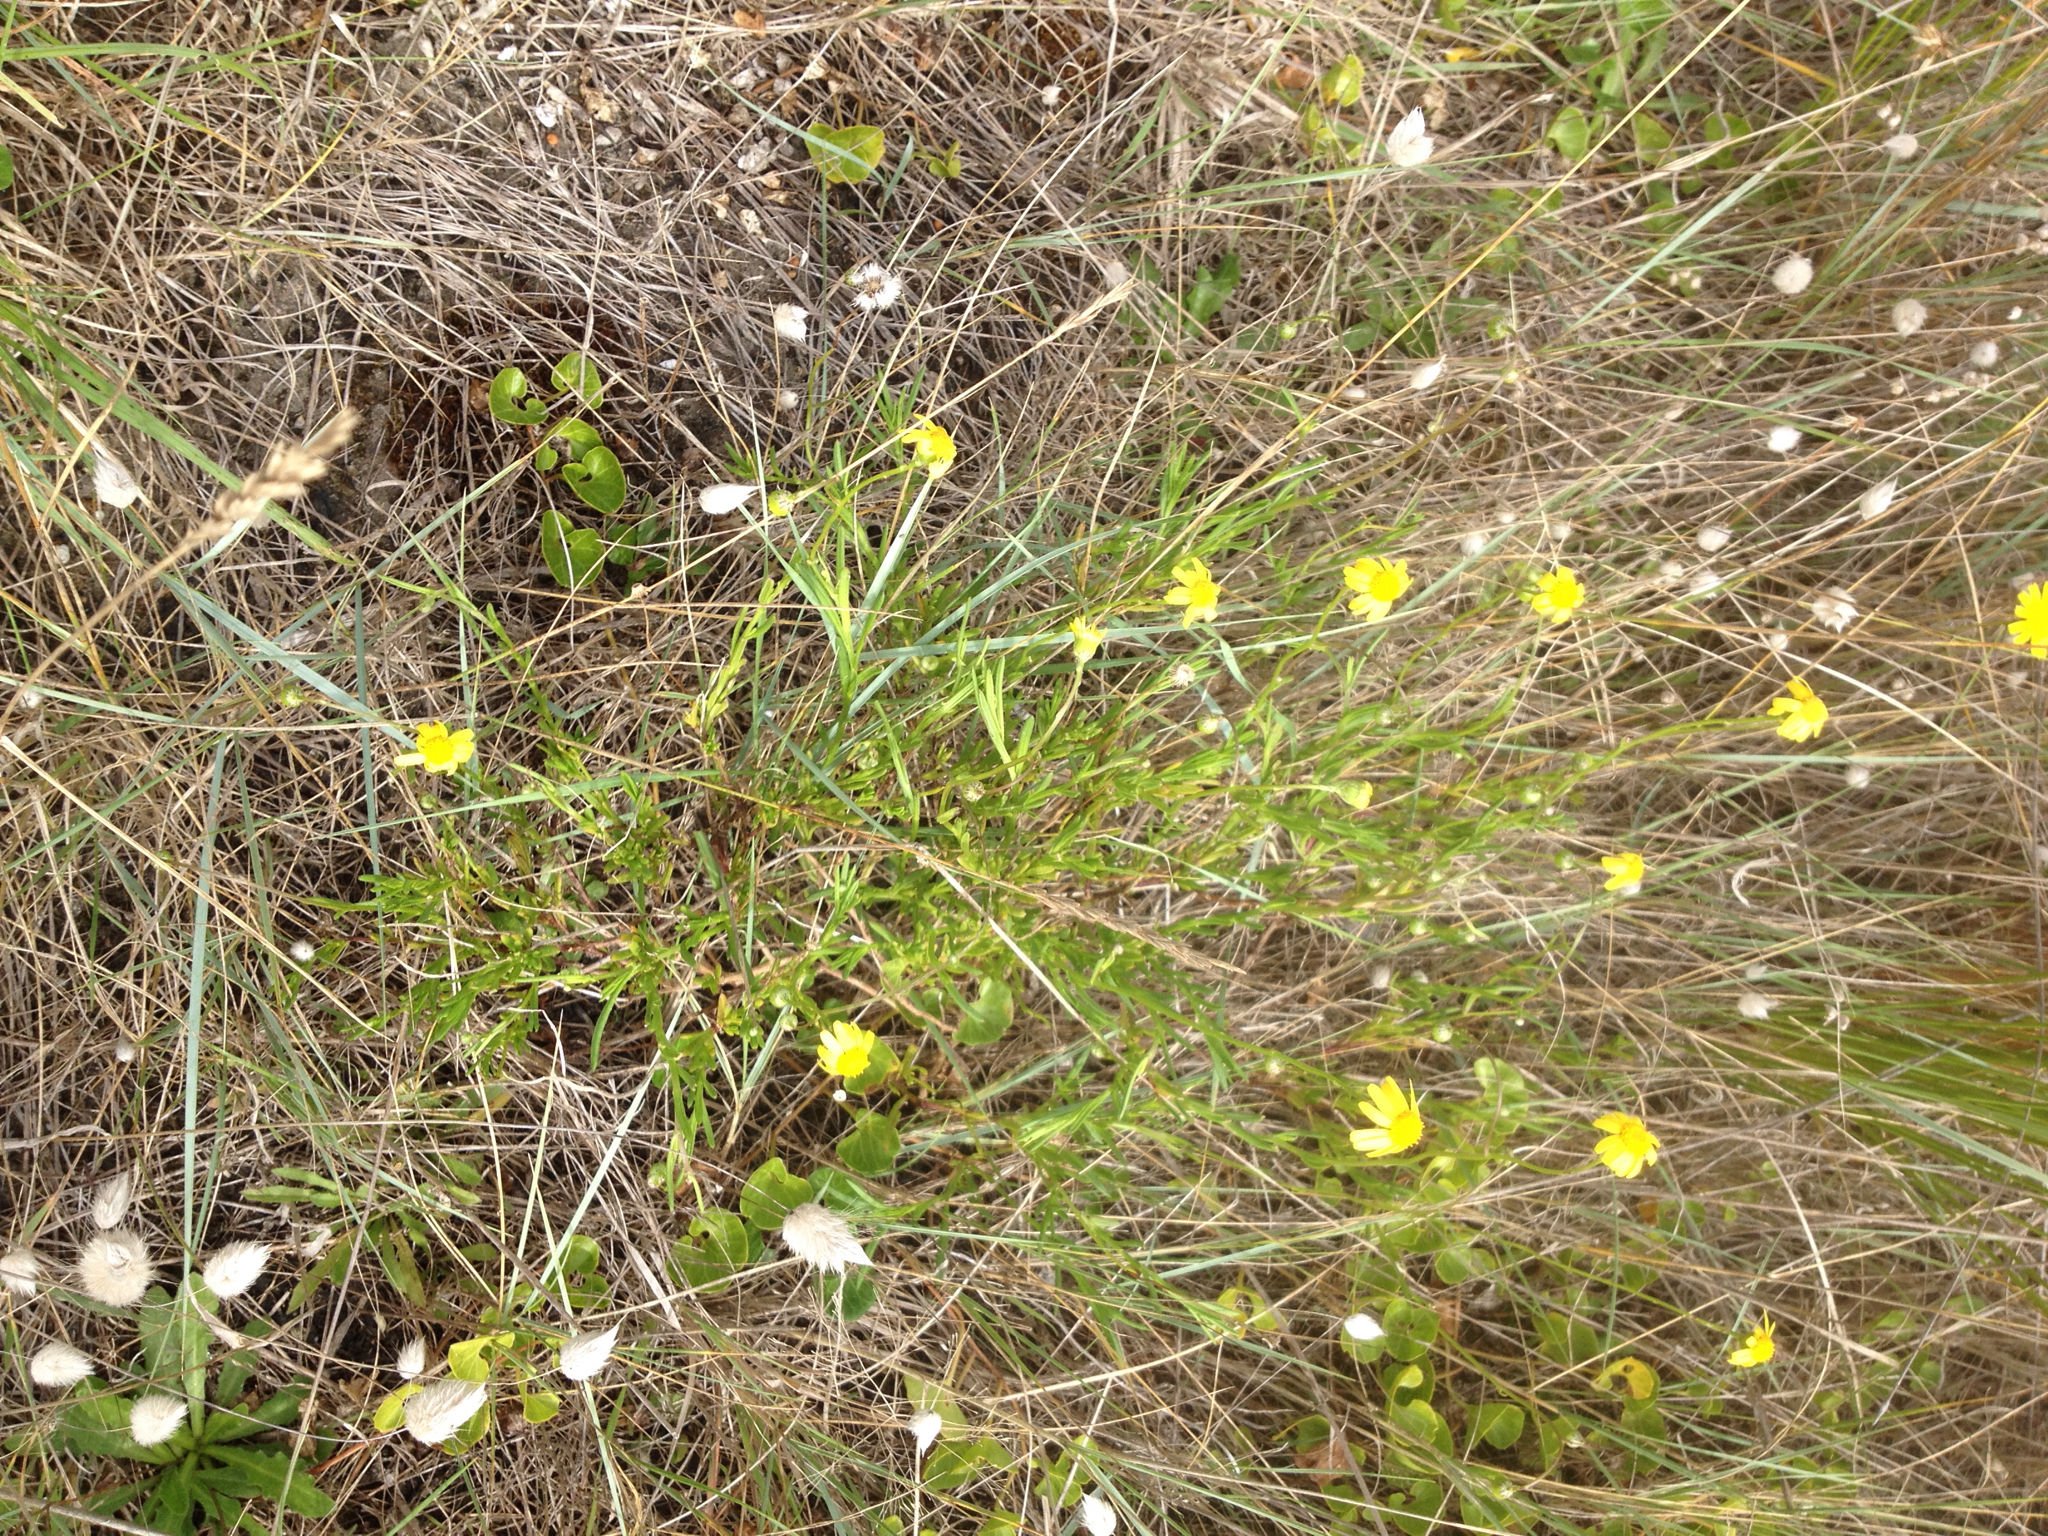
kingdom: Plantae
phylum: Tracheophyta
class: Magnoliopsida
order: Asterales
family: Asteraceae
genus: Senecio
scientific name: Senecio skirrhodon
